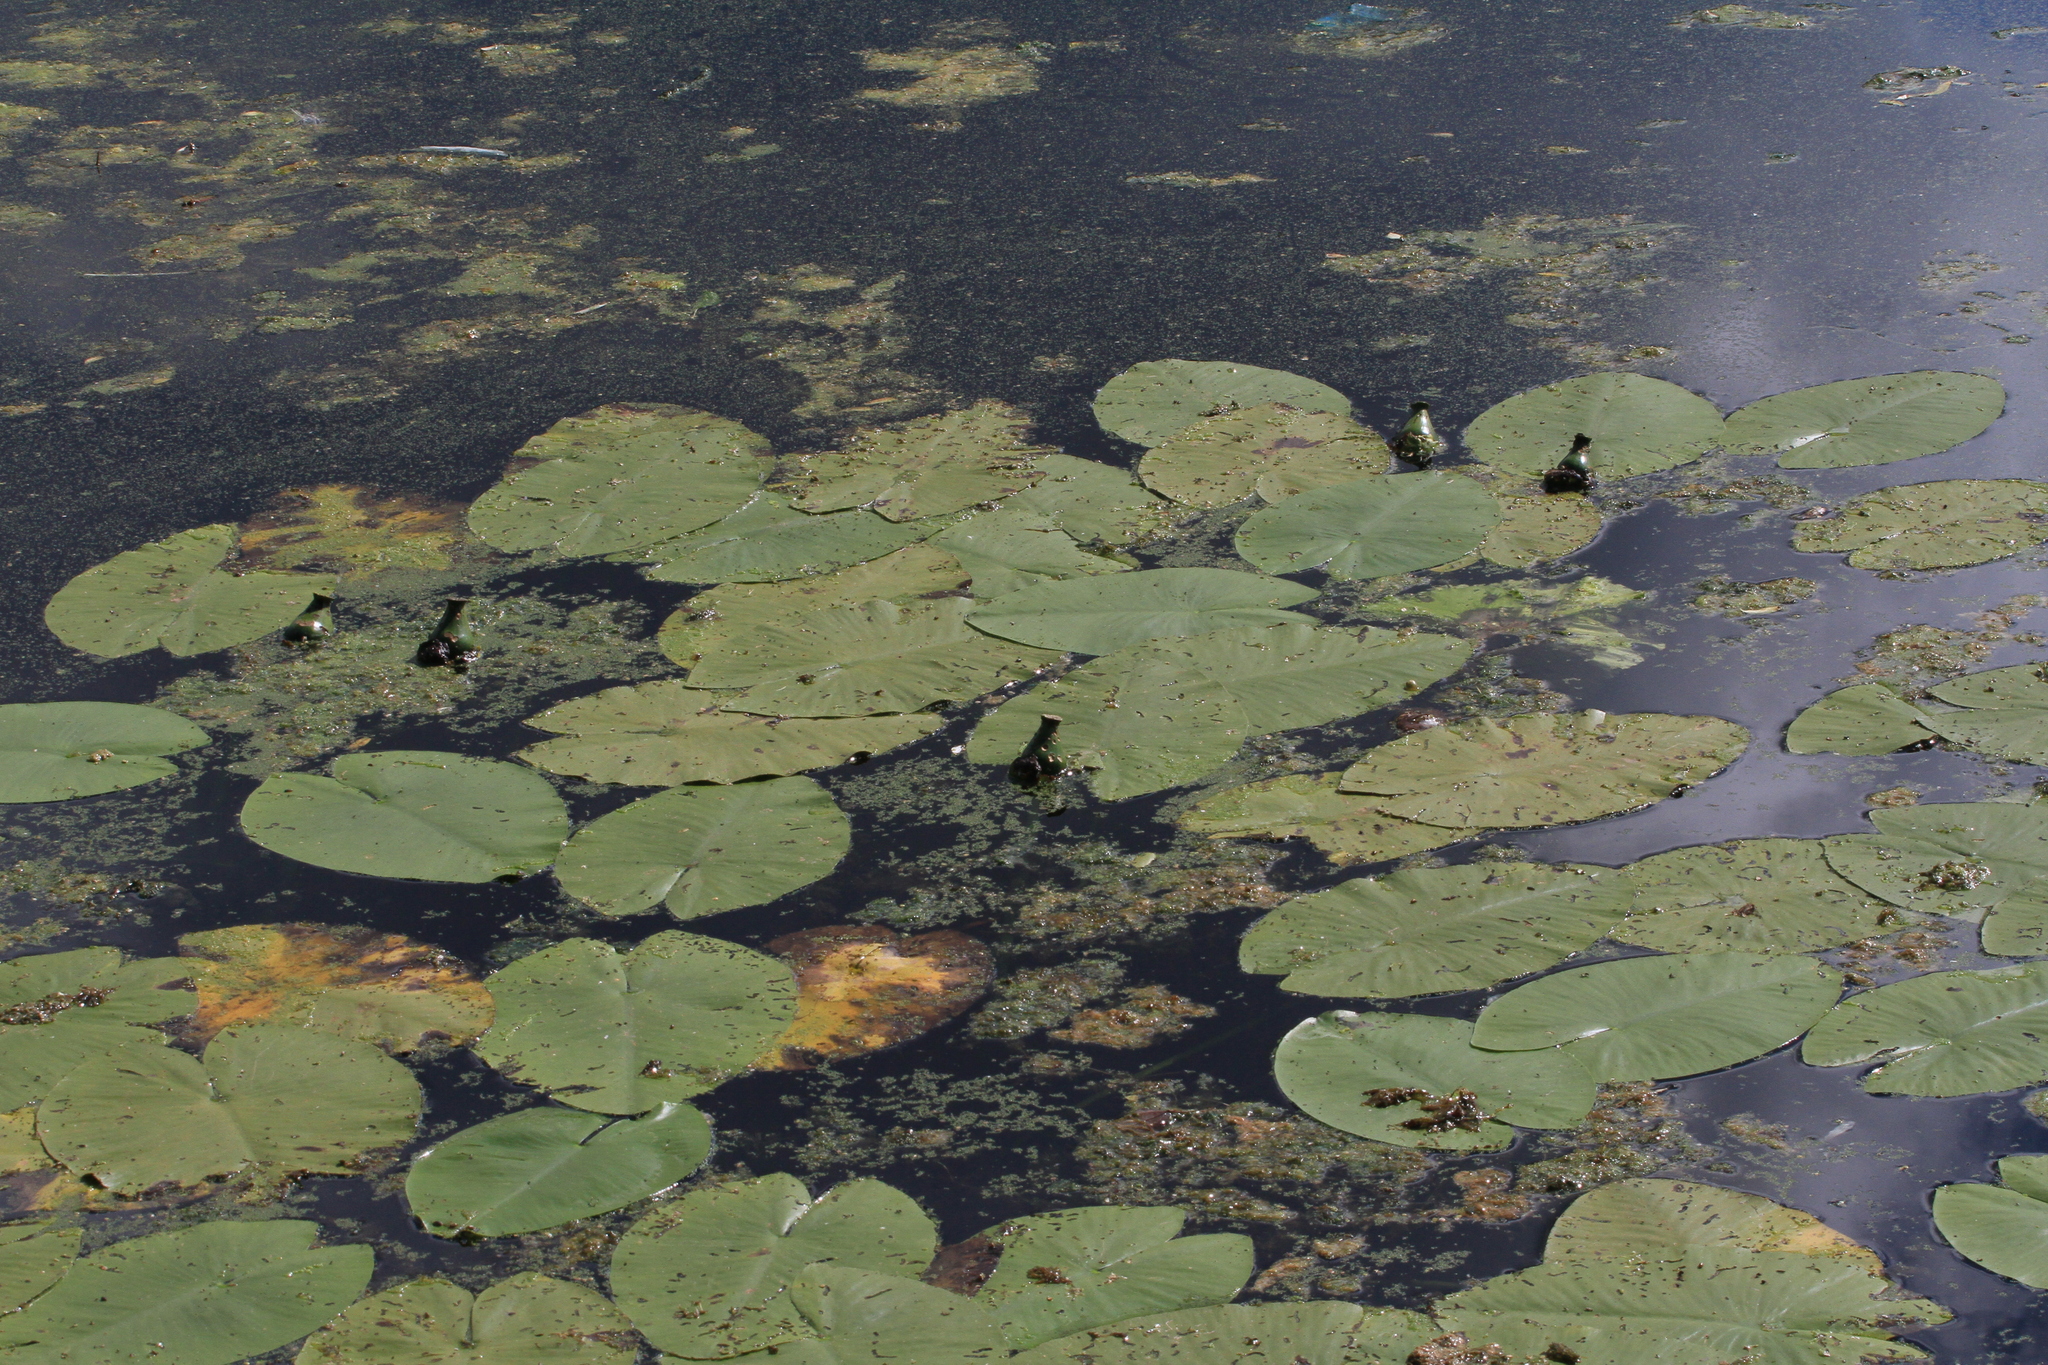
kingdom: Plantae
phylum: Tracheophyta
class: Magnoliopsida
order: Nymphaeales
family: Nymphaeaceae
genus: Nuphar
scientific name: Nuphar lutea
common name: Yellow water-lily
